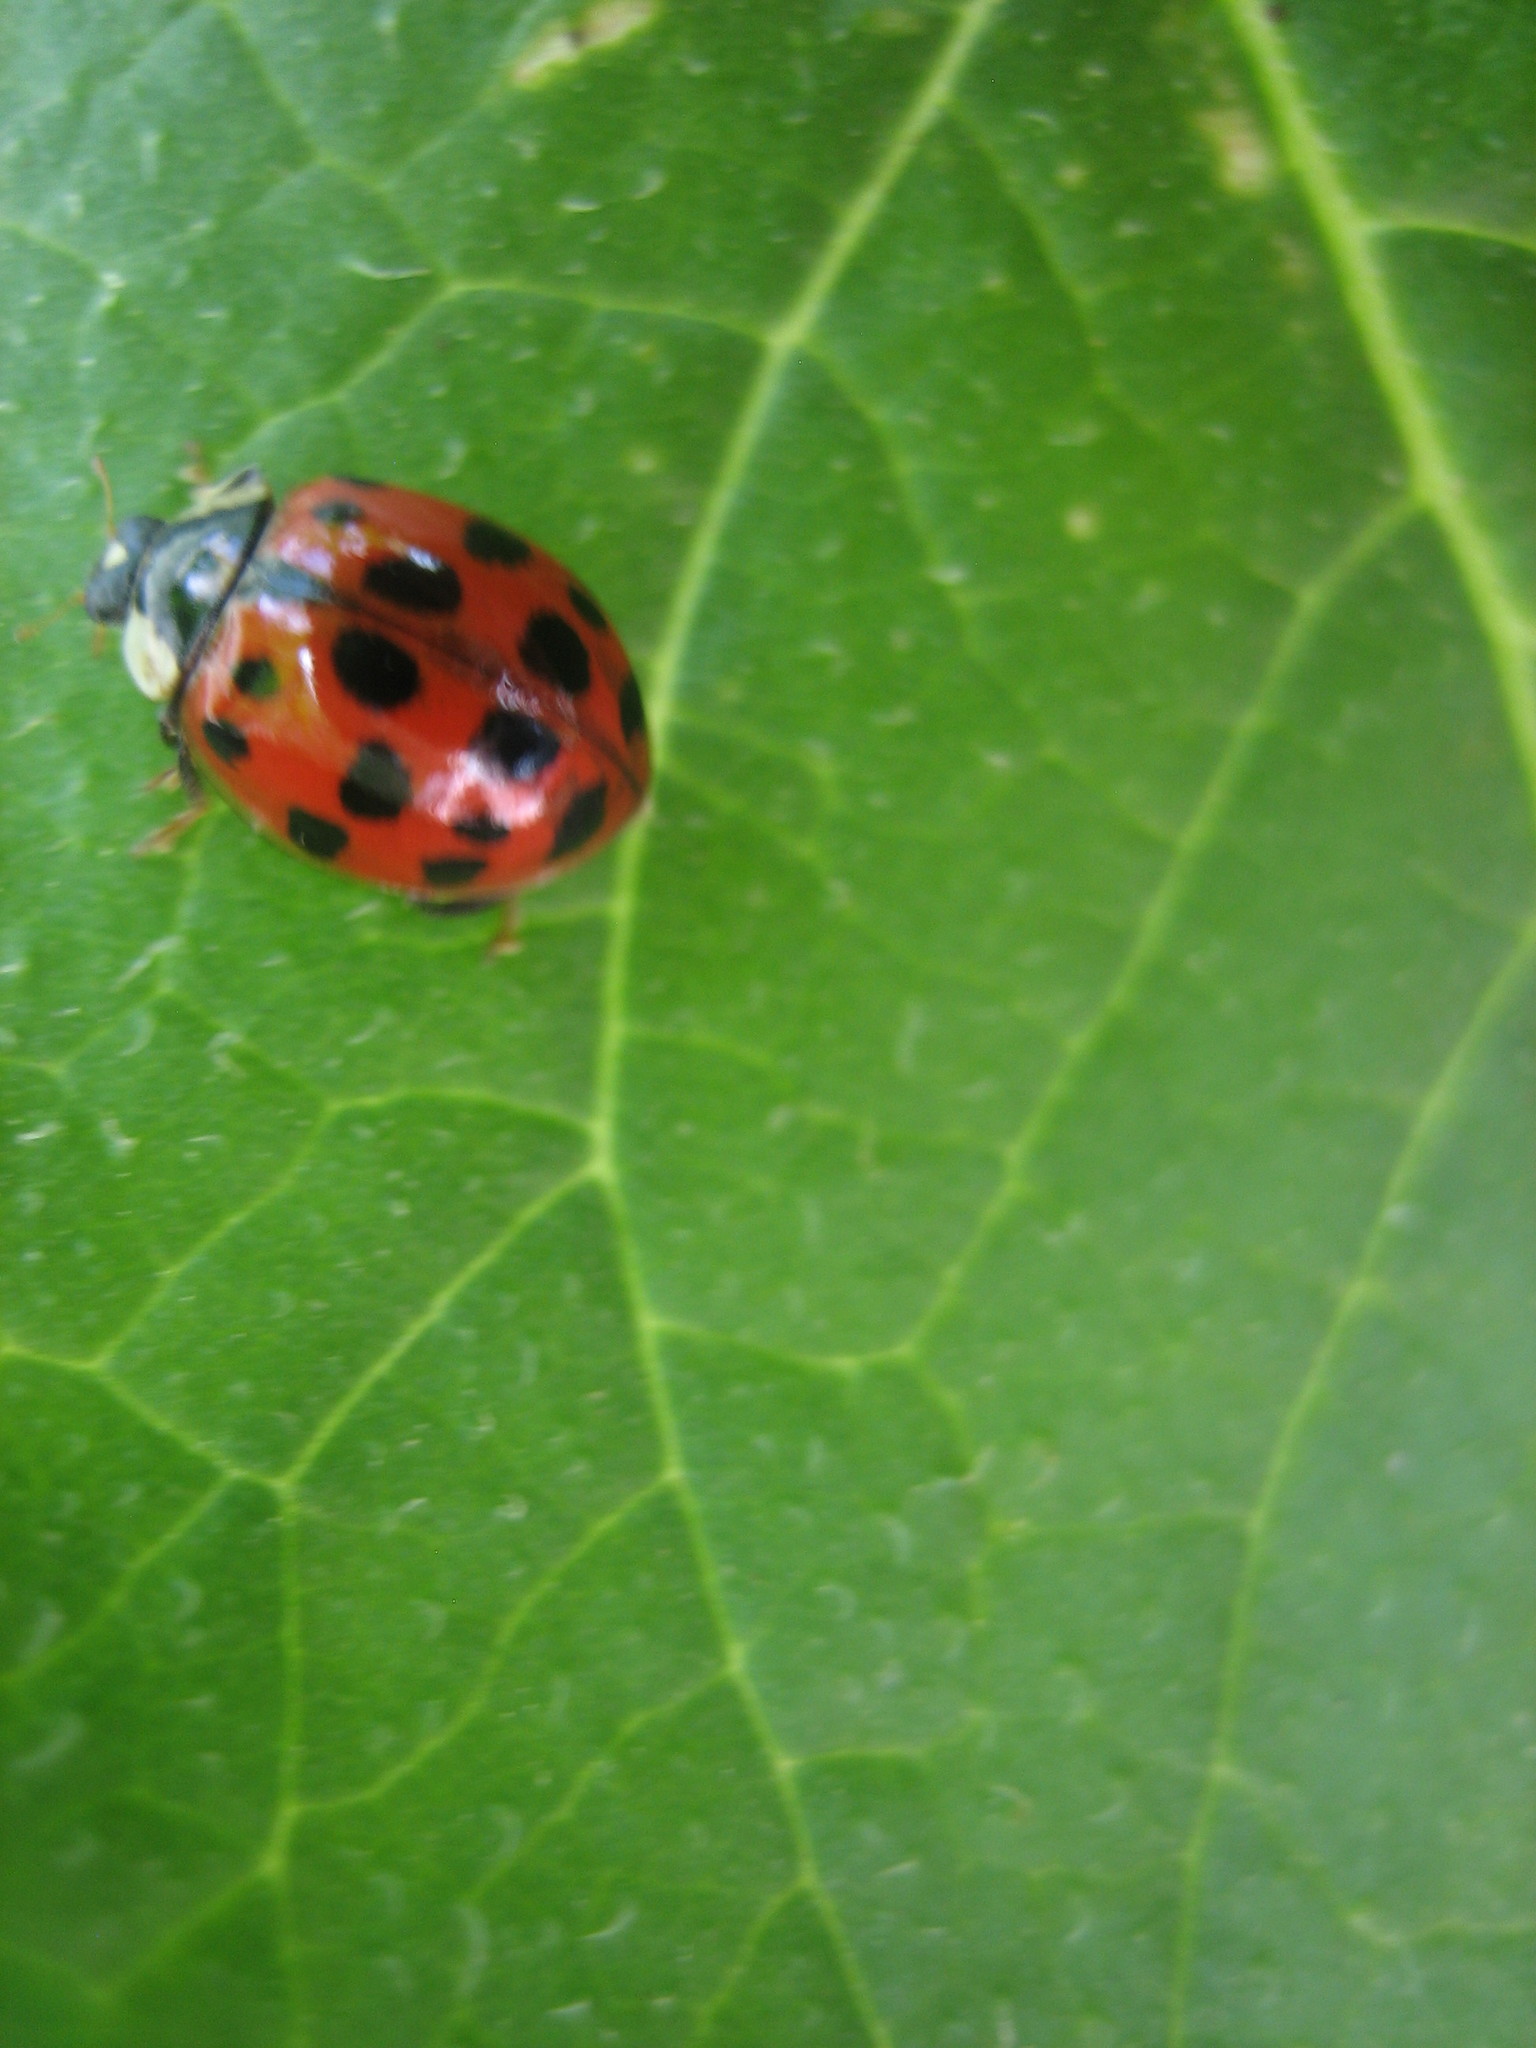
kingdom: Animalia
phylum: Arthropoda
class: Insecta
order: Coleoptera
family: Coccinellidae
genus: Harmonia
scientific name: Harmonia axyridis
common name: Harlequin ladybird
